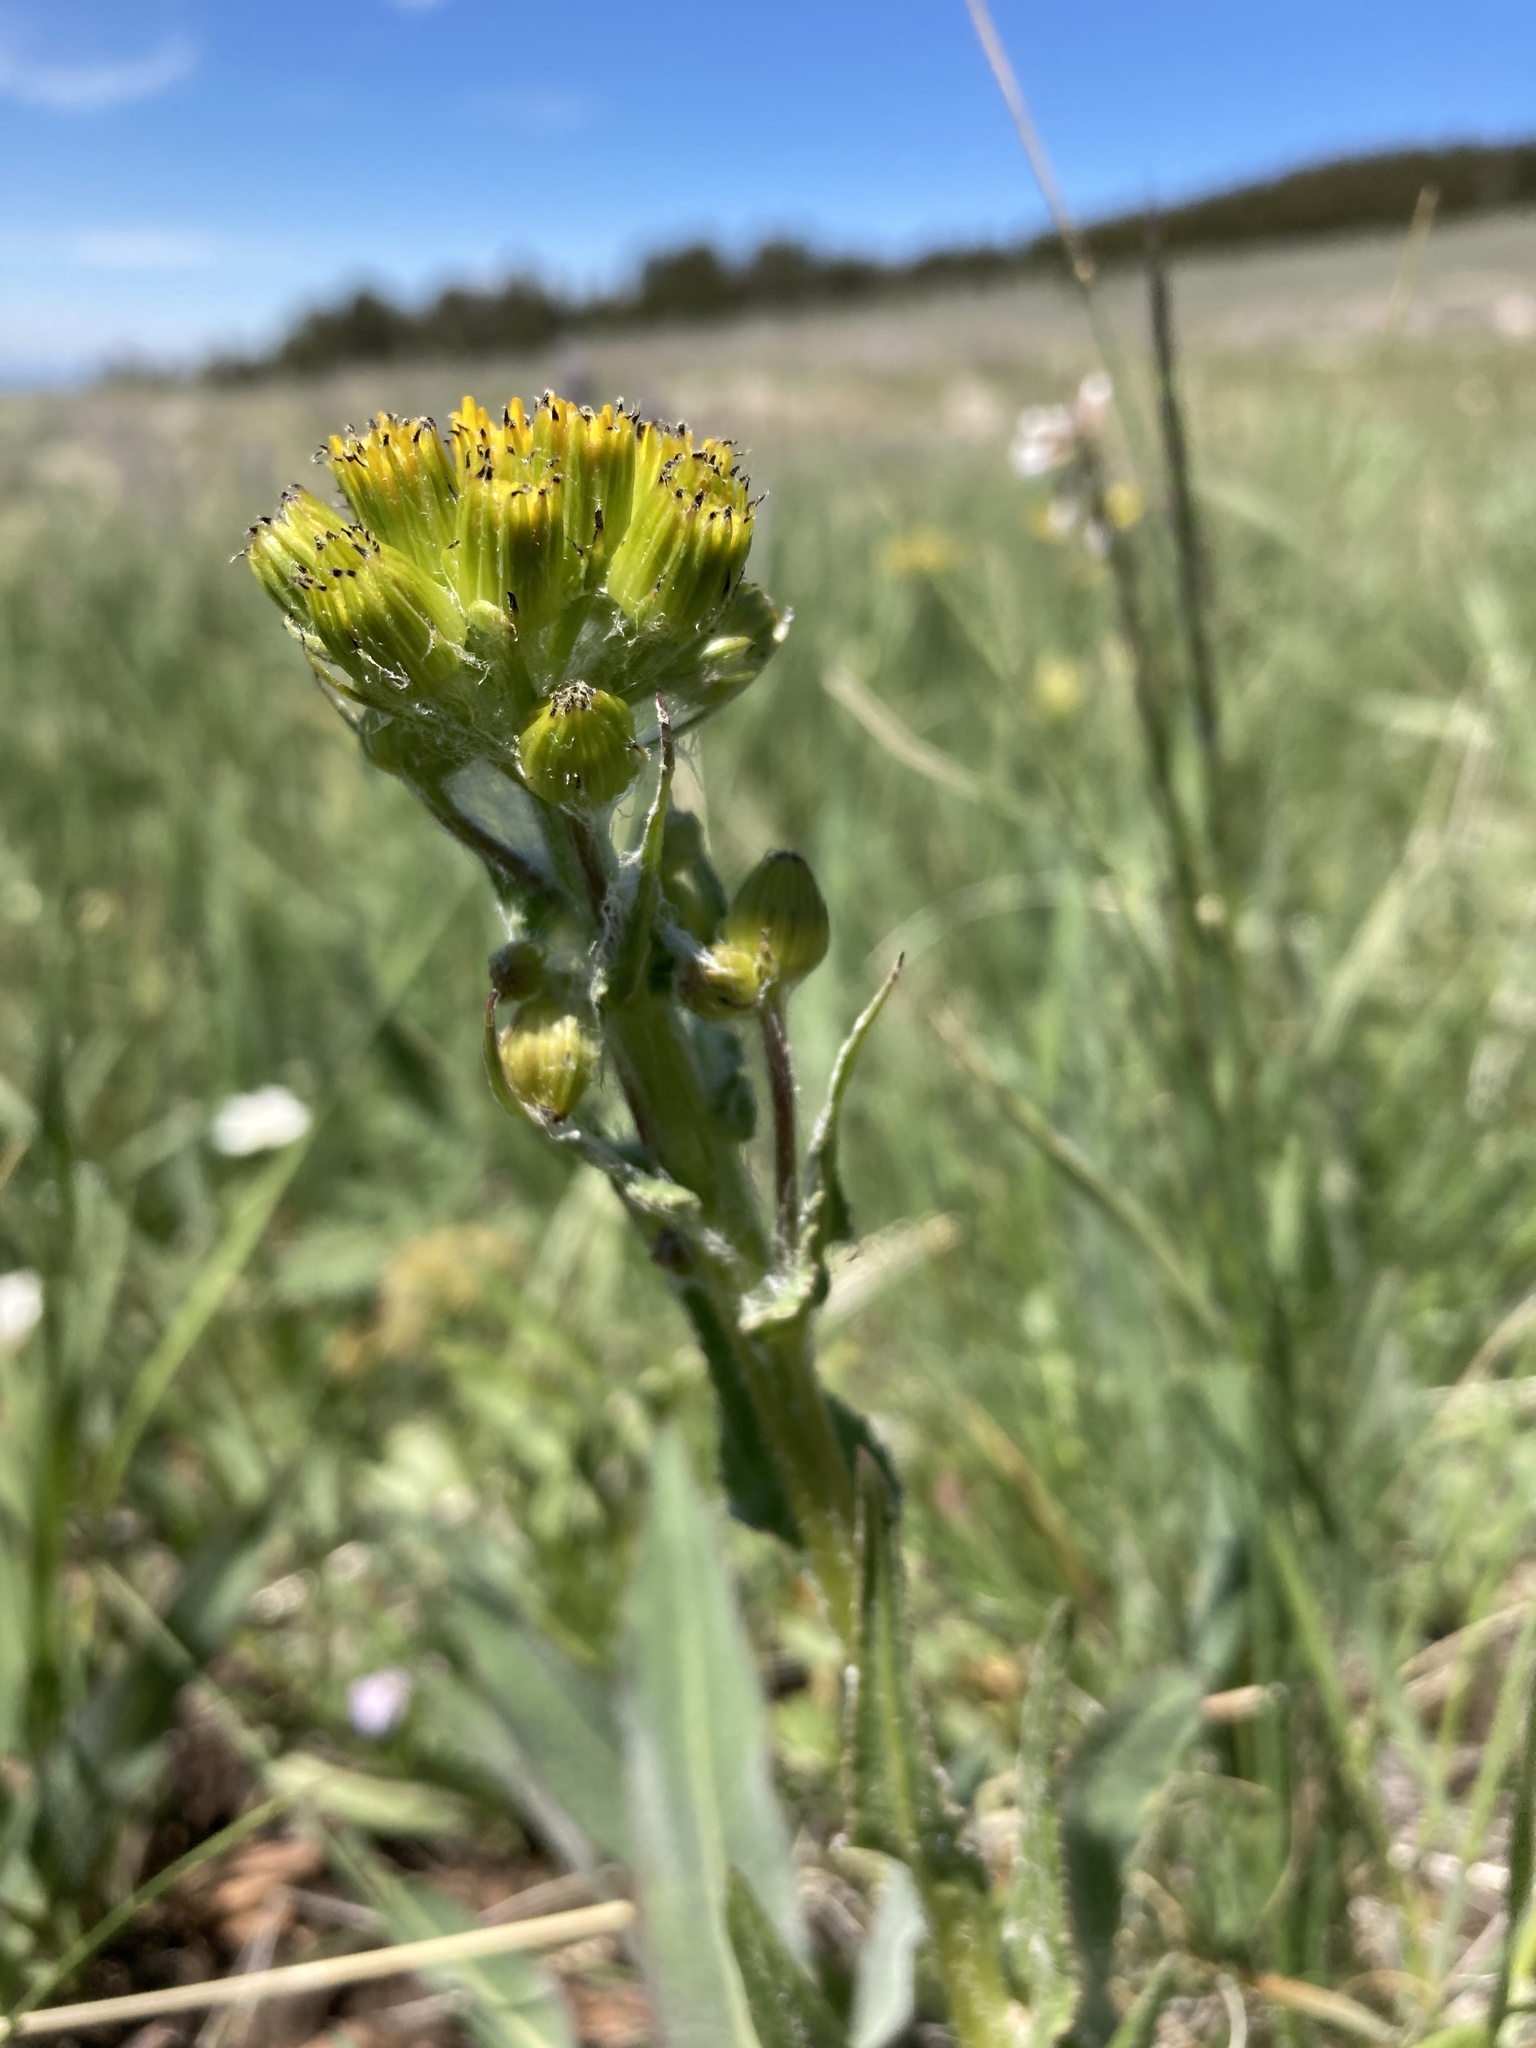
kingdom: Plantae
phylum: Tracheophyta
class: Magnoliopsida
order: Asterales
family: Asteraceae
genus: Senecio
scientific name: Senecio integerrimus
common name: Gaugeplant
